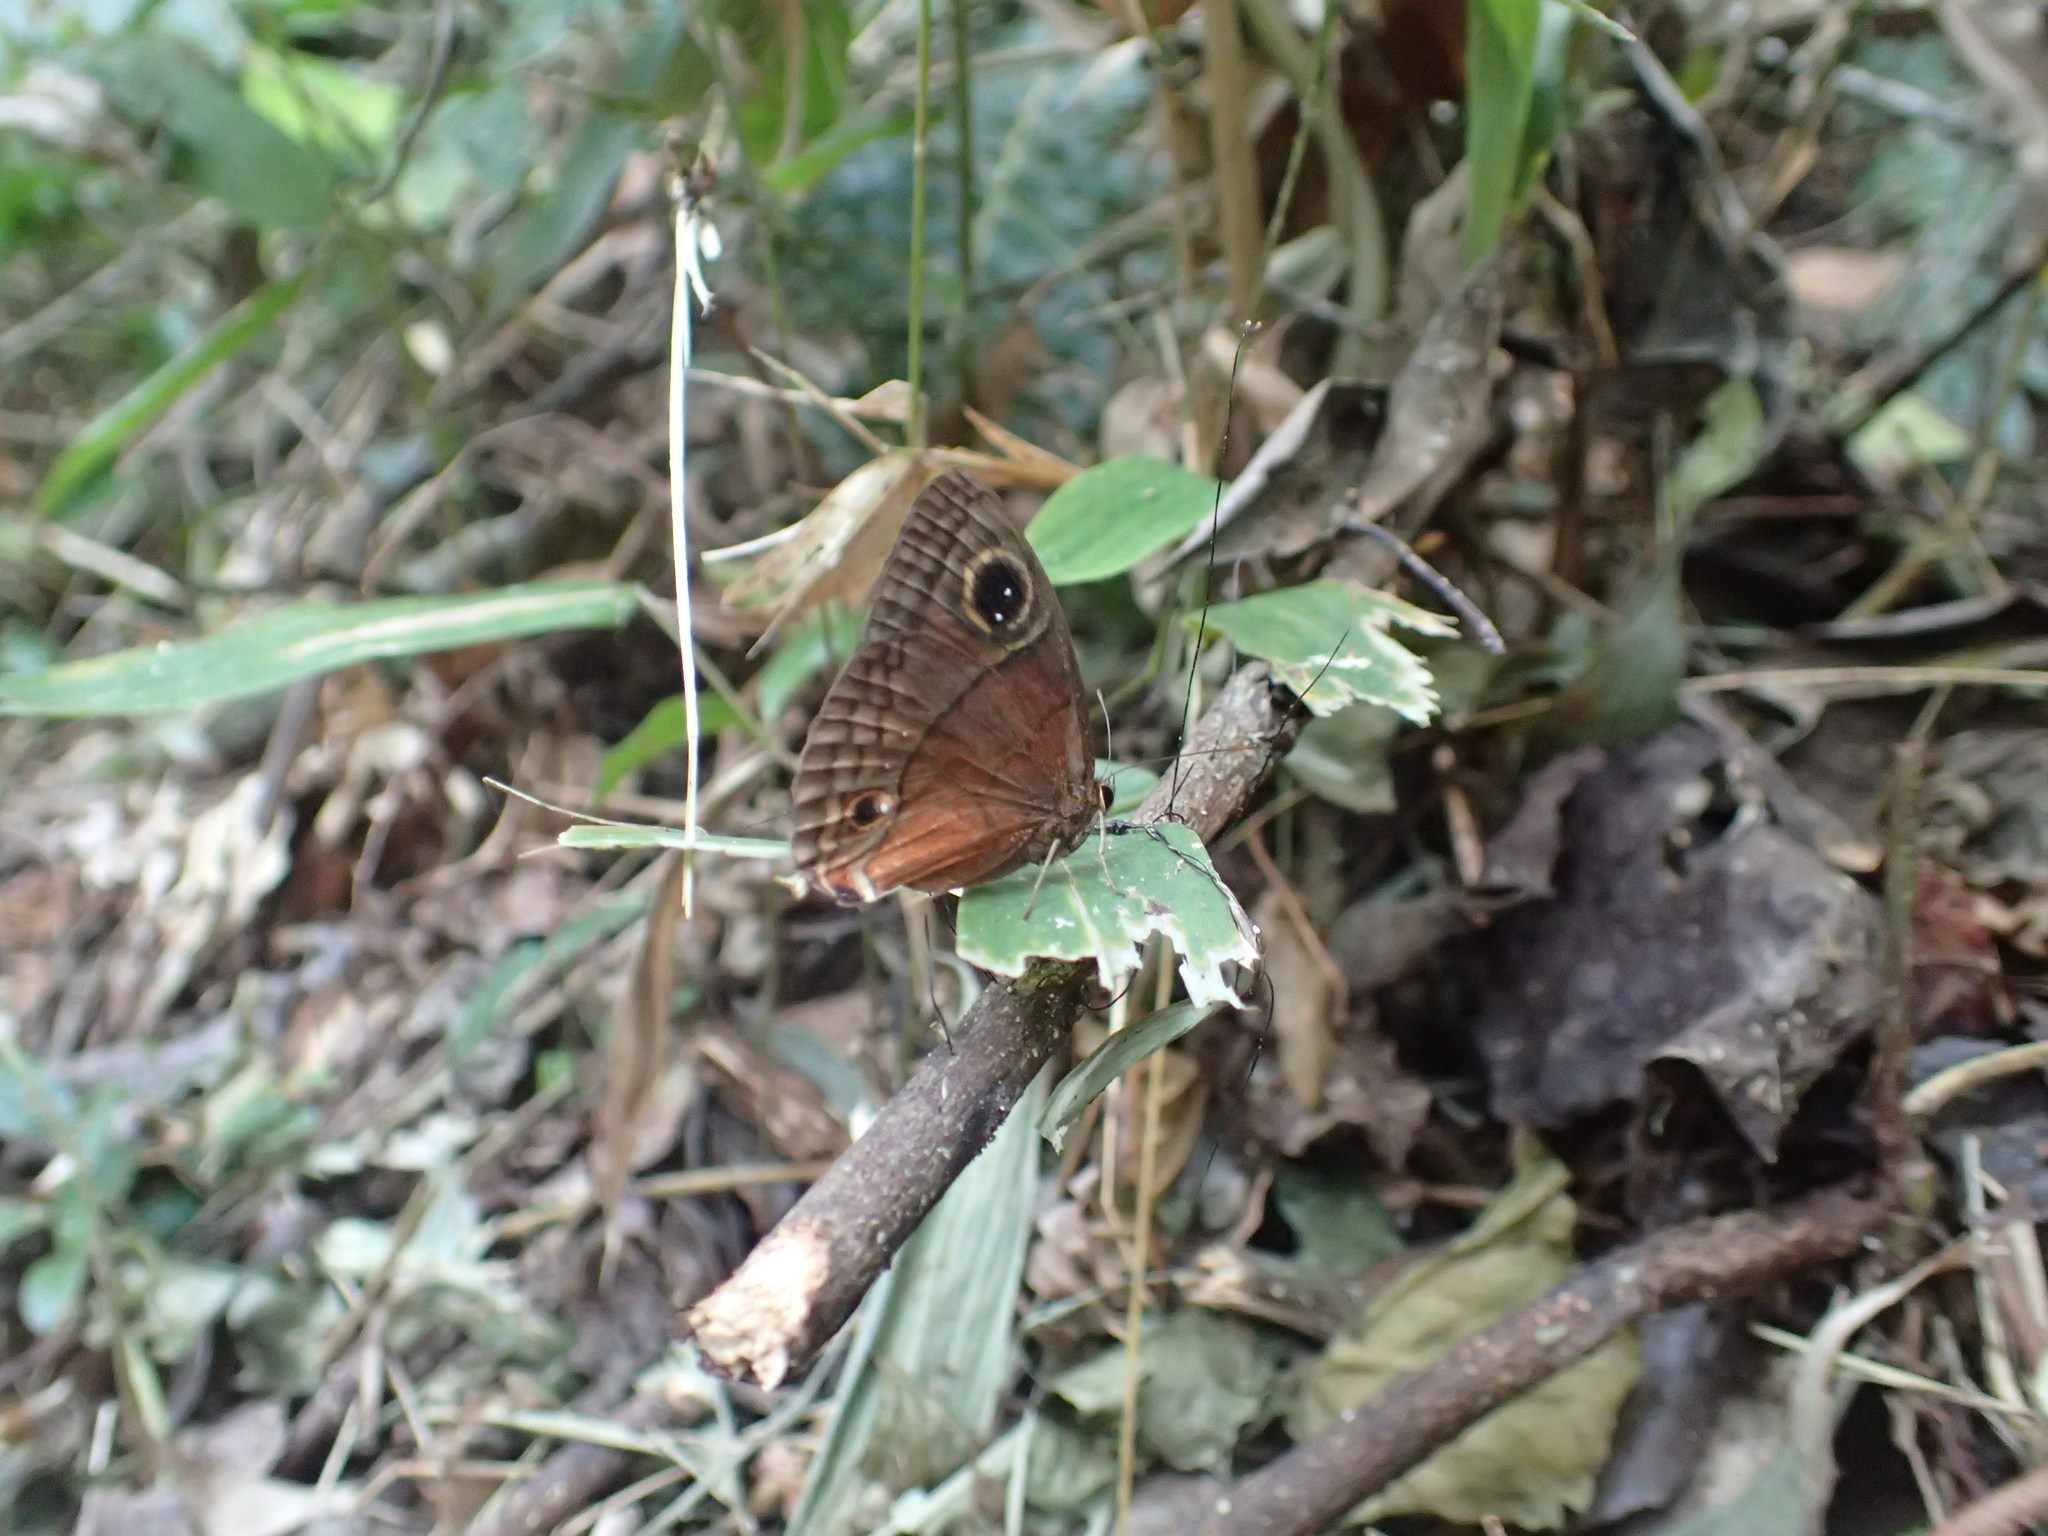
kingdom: Animalia
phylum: Arthropoda
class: Insecta
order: Lepidoptera
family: Nymphalidae
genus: Calisto
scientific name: Calisto nubila
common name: Puerto rican calisto
